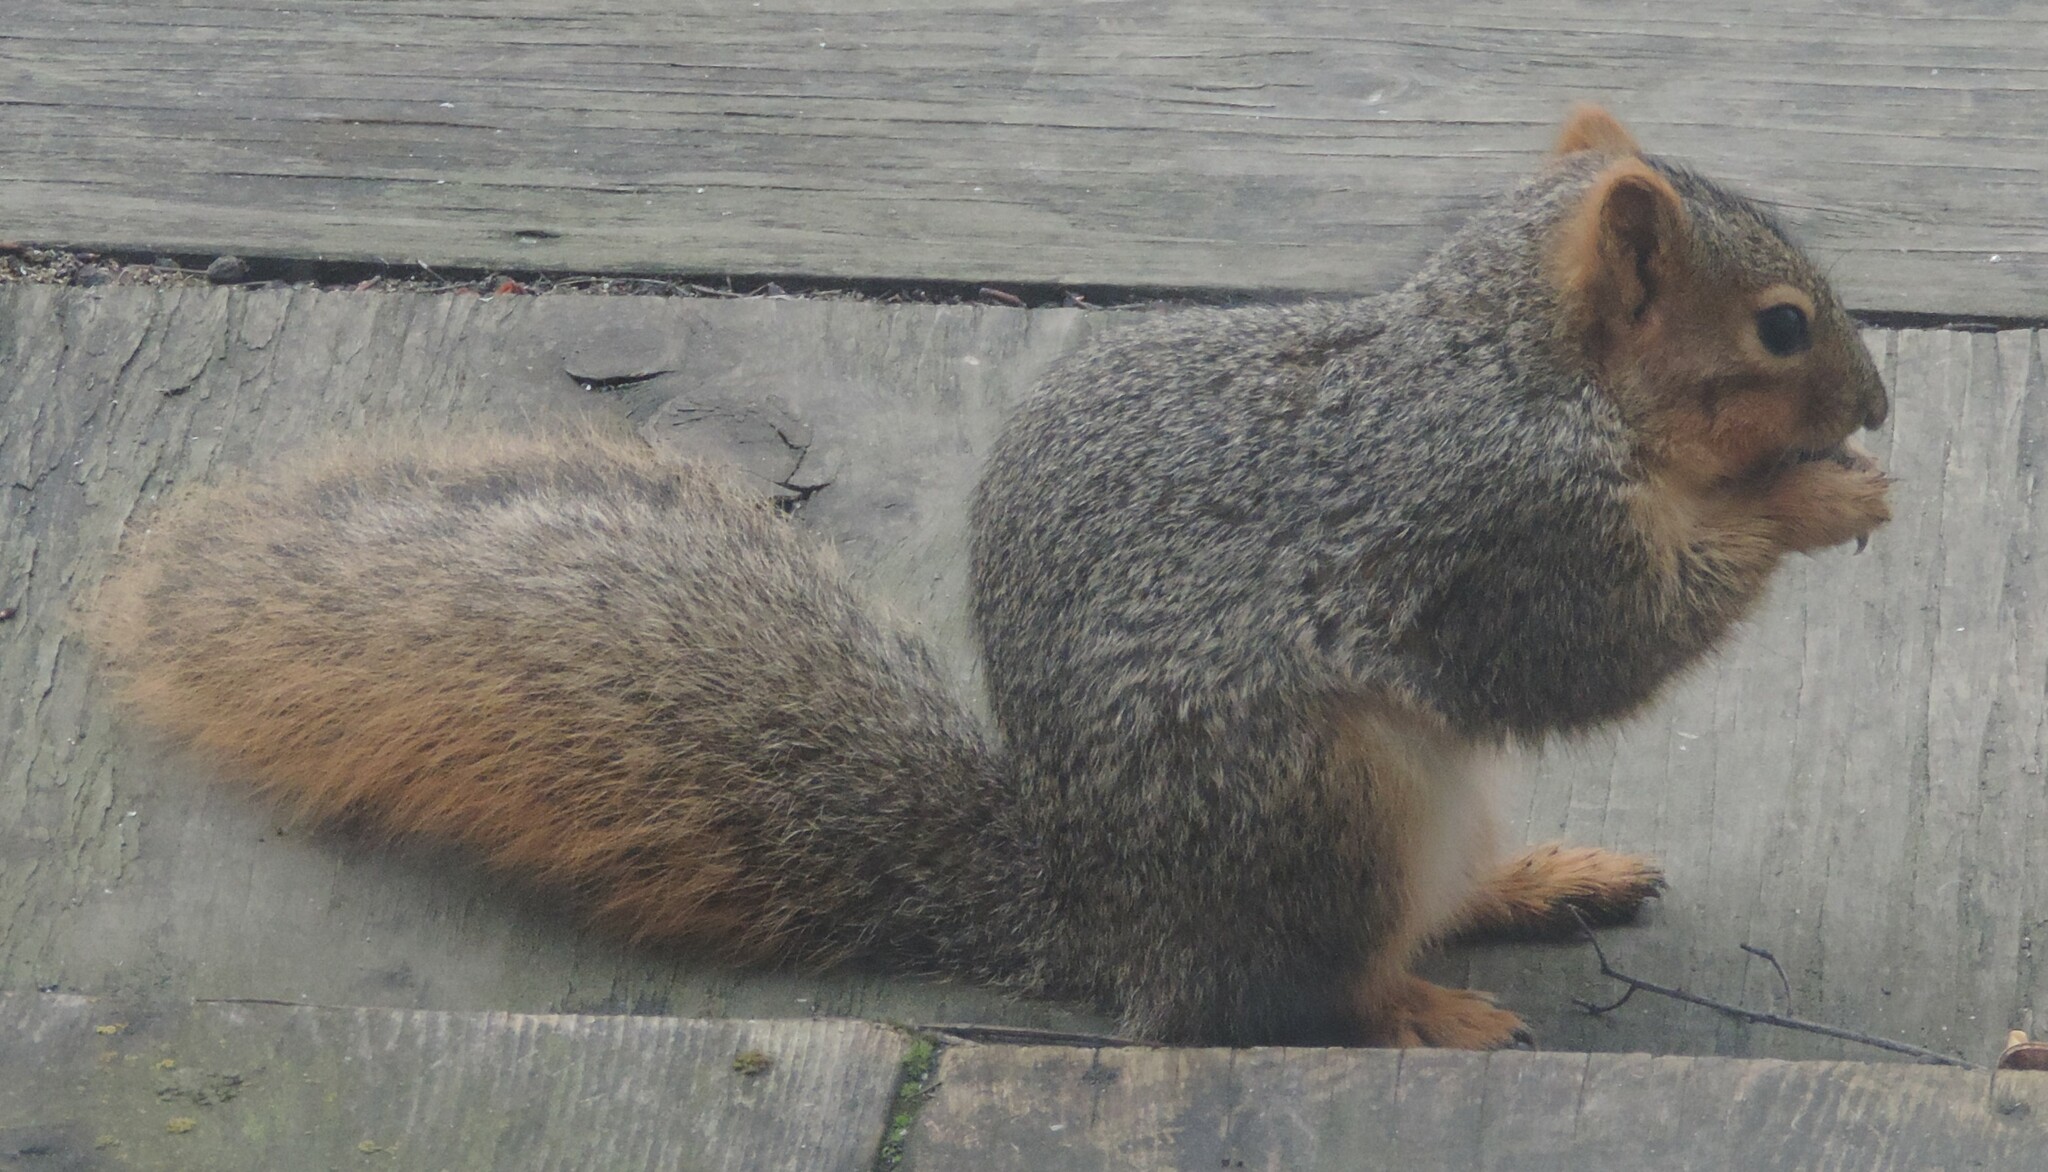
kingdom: Animalia
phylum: Chordata
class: Mammalia
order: Rodentia
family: Sciuridae
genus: Sciurus
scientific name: Sciurus niger
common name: Fox squirrel
